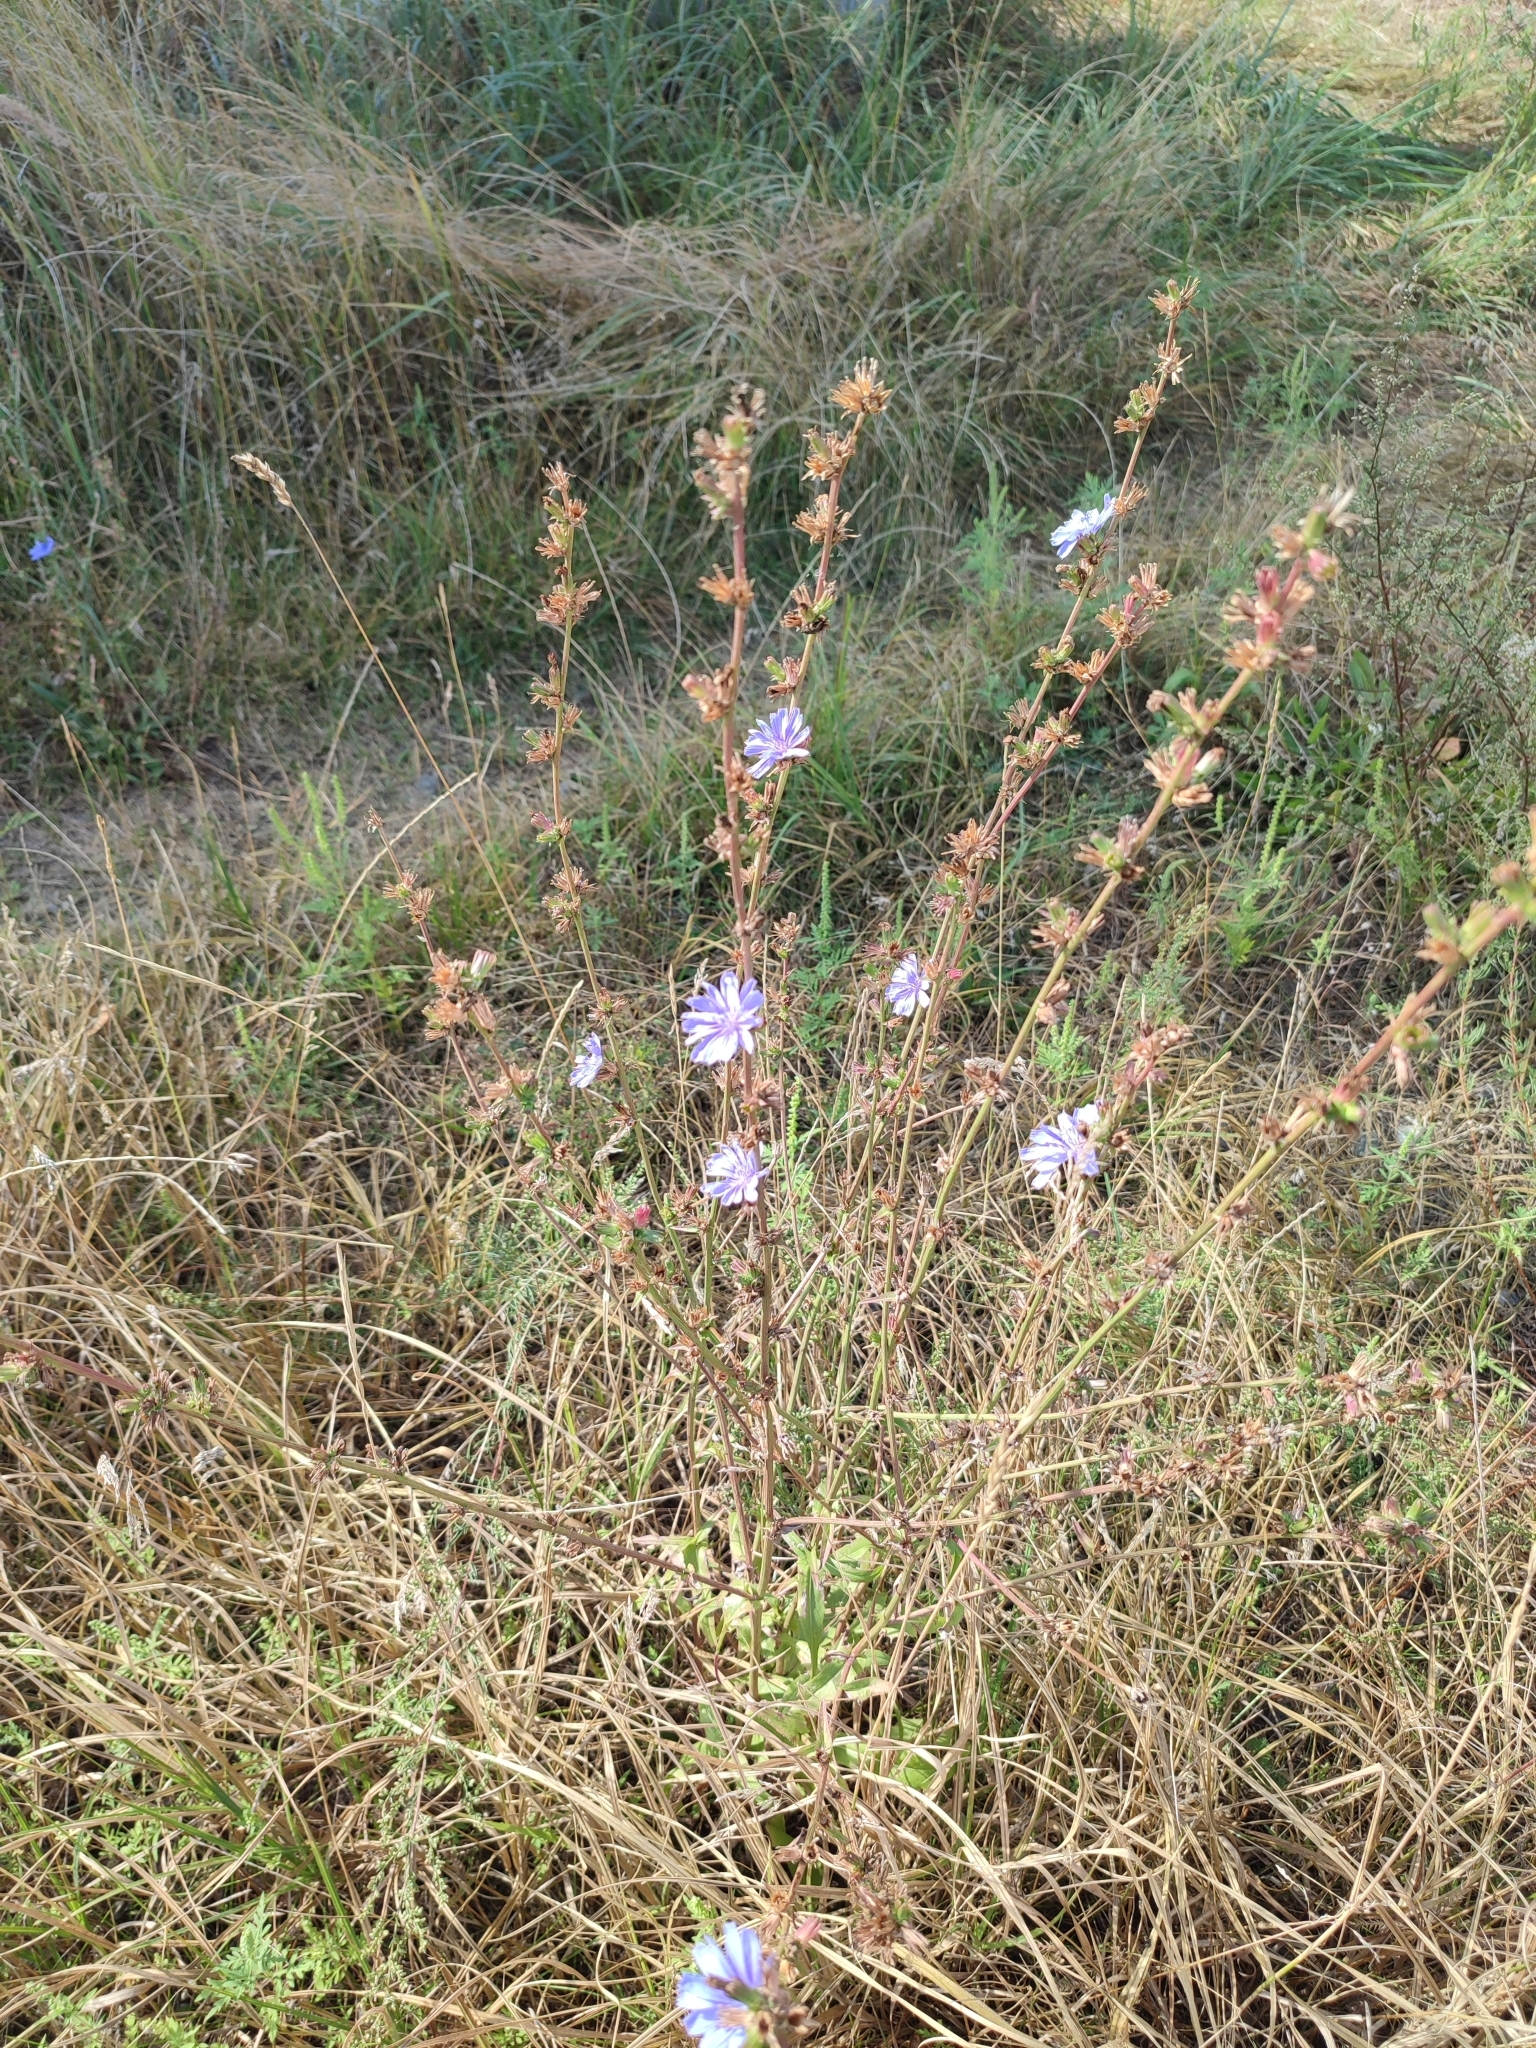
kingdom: Plantae
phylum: Tracheophyta
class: Magnoliopsida
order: Asterales
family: Asteraceae
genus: Cichorium
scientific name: Cichorium intybus
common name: Chicory
